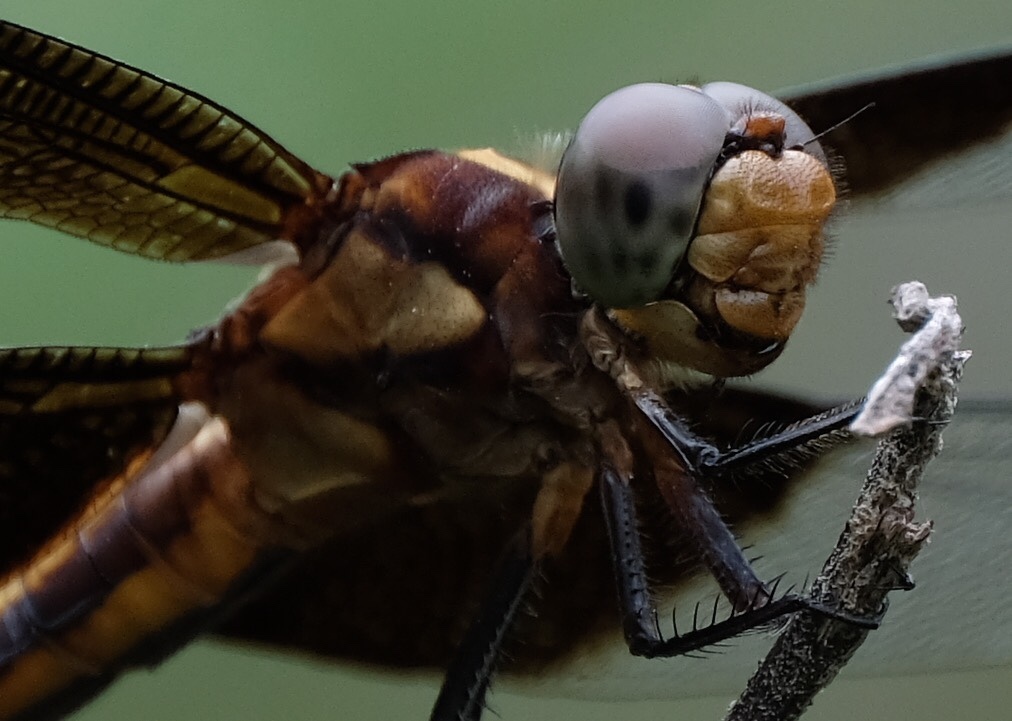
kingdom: Animalia
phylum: Arthropoda
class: Insecta
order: Odonata
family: Libellulidae
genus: Libellula
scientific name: Libellula luctuosa
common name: Widow skimmer
